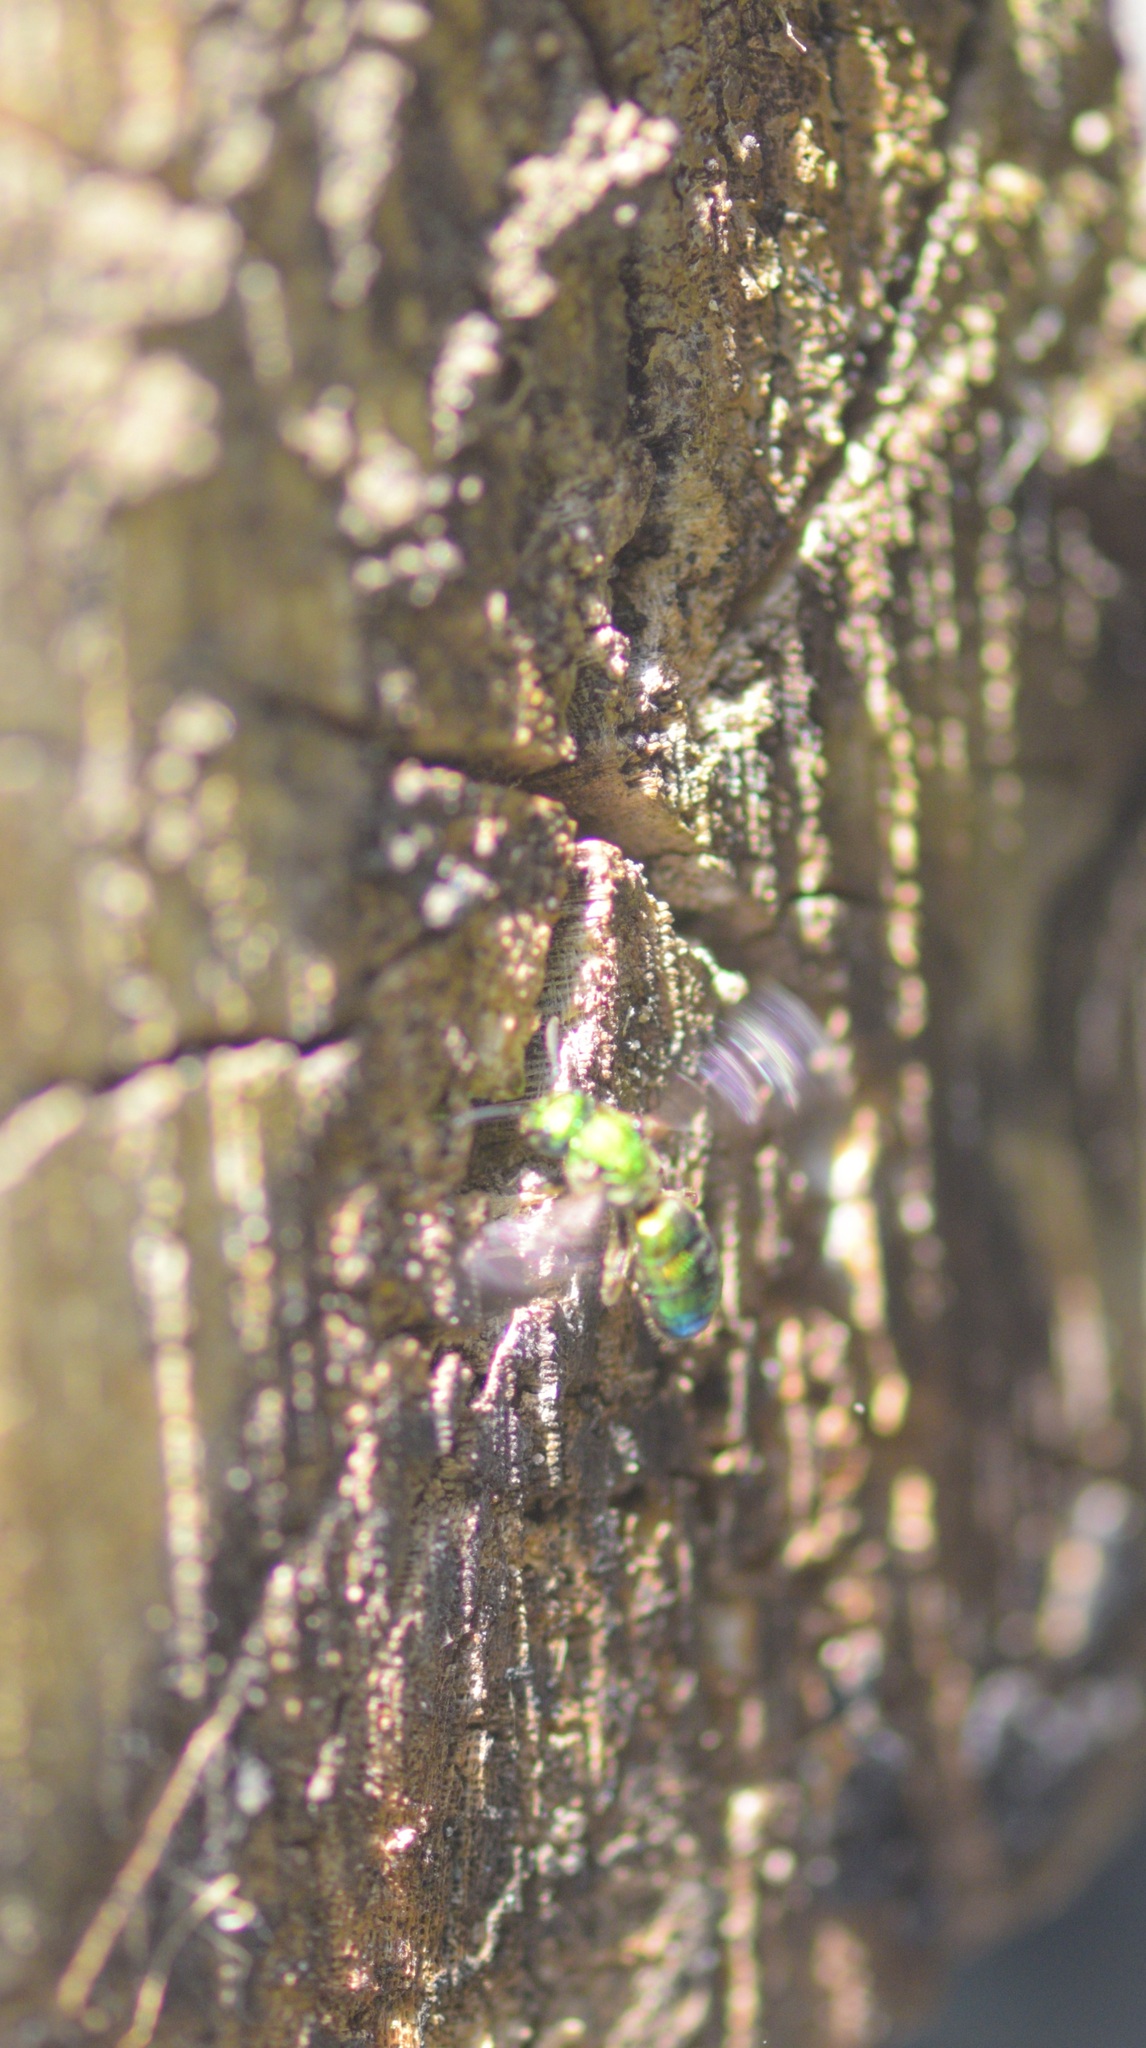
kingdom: Animalia
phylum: Arthropoda
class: Insecta
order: Hymenoptera
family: Halictidae
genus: Augochlora
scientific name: Augochlora pura
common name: Pure green sweat bee
